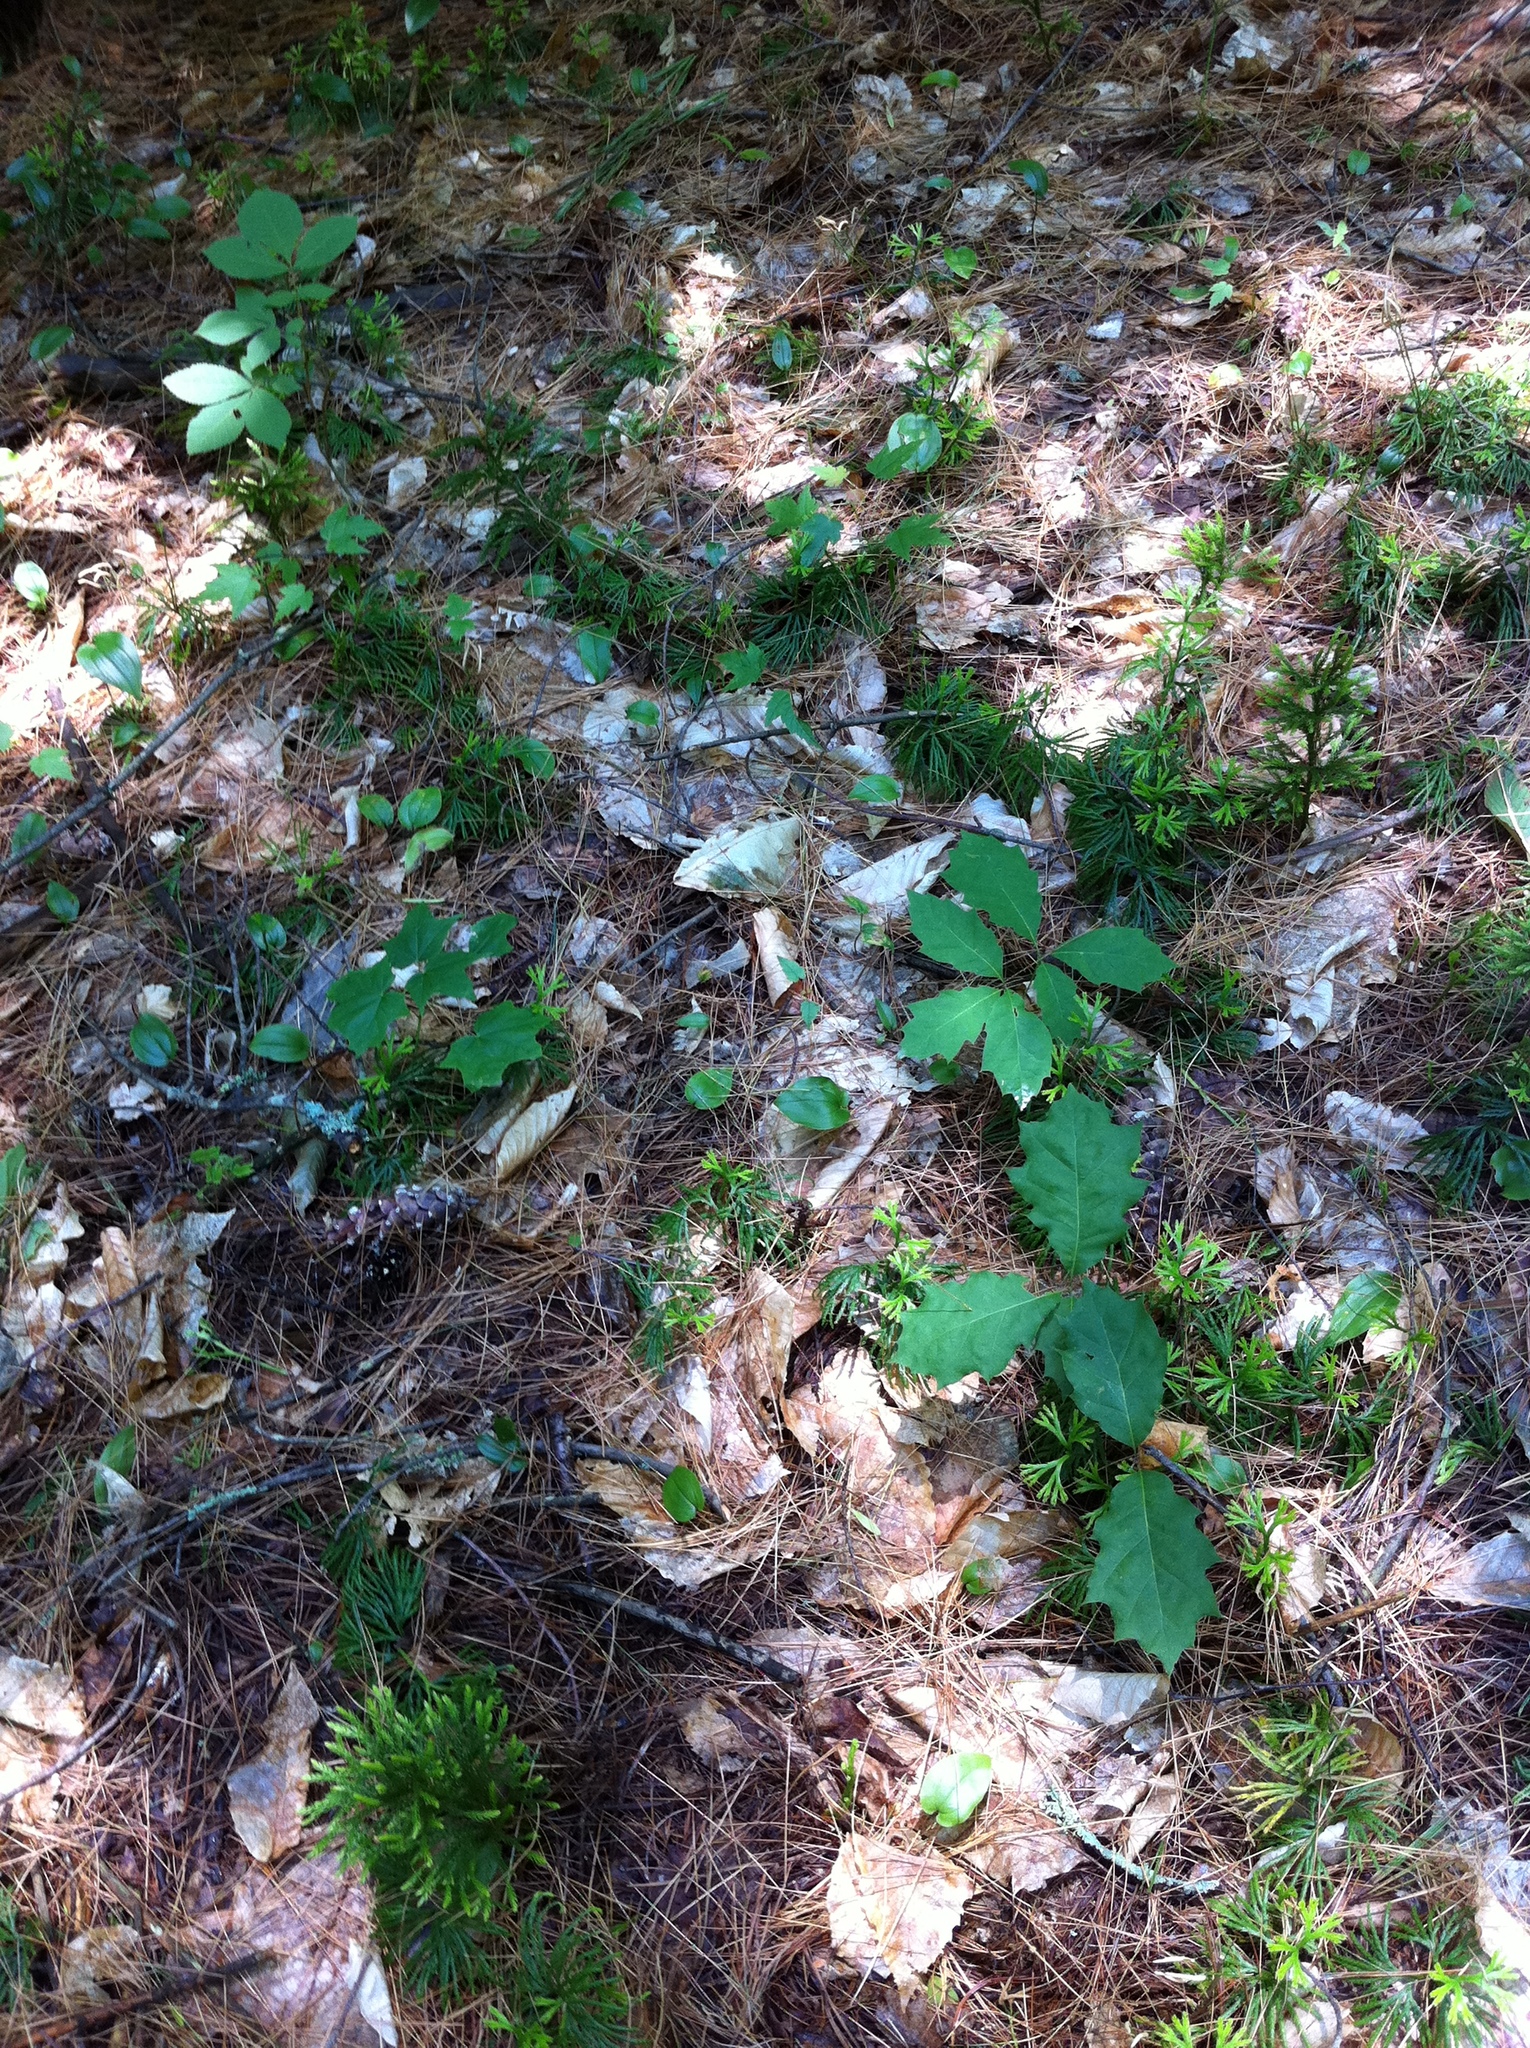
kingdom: Plantae
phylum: Tracheophyta
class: Magnoliopsida
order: Fagales
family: Fagaceae
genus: Quercus
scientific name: Quercus rubra
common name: Red oak
